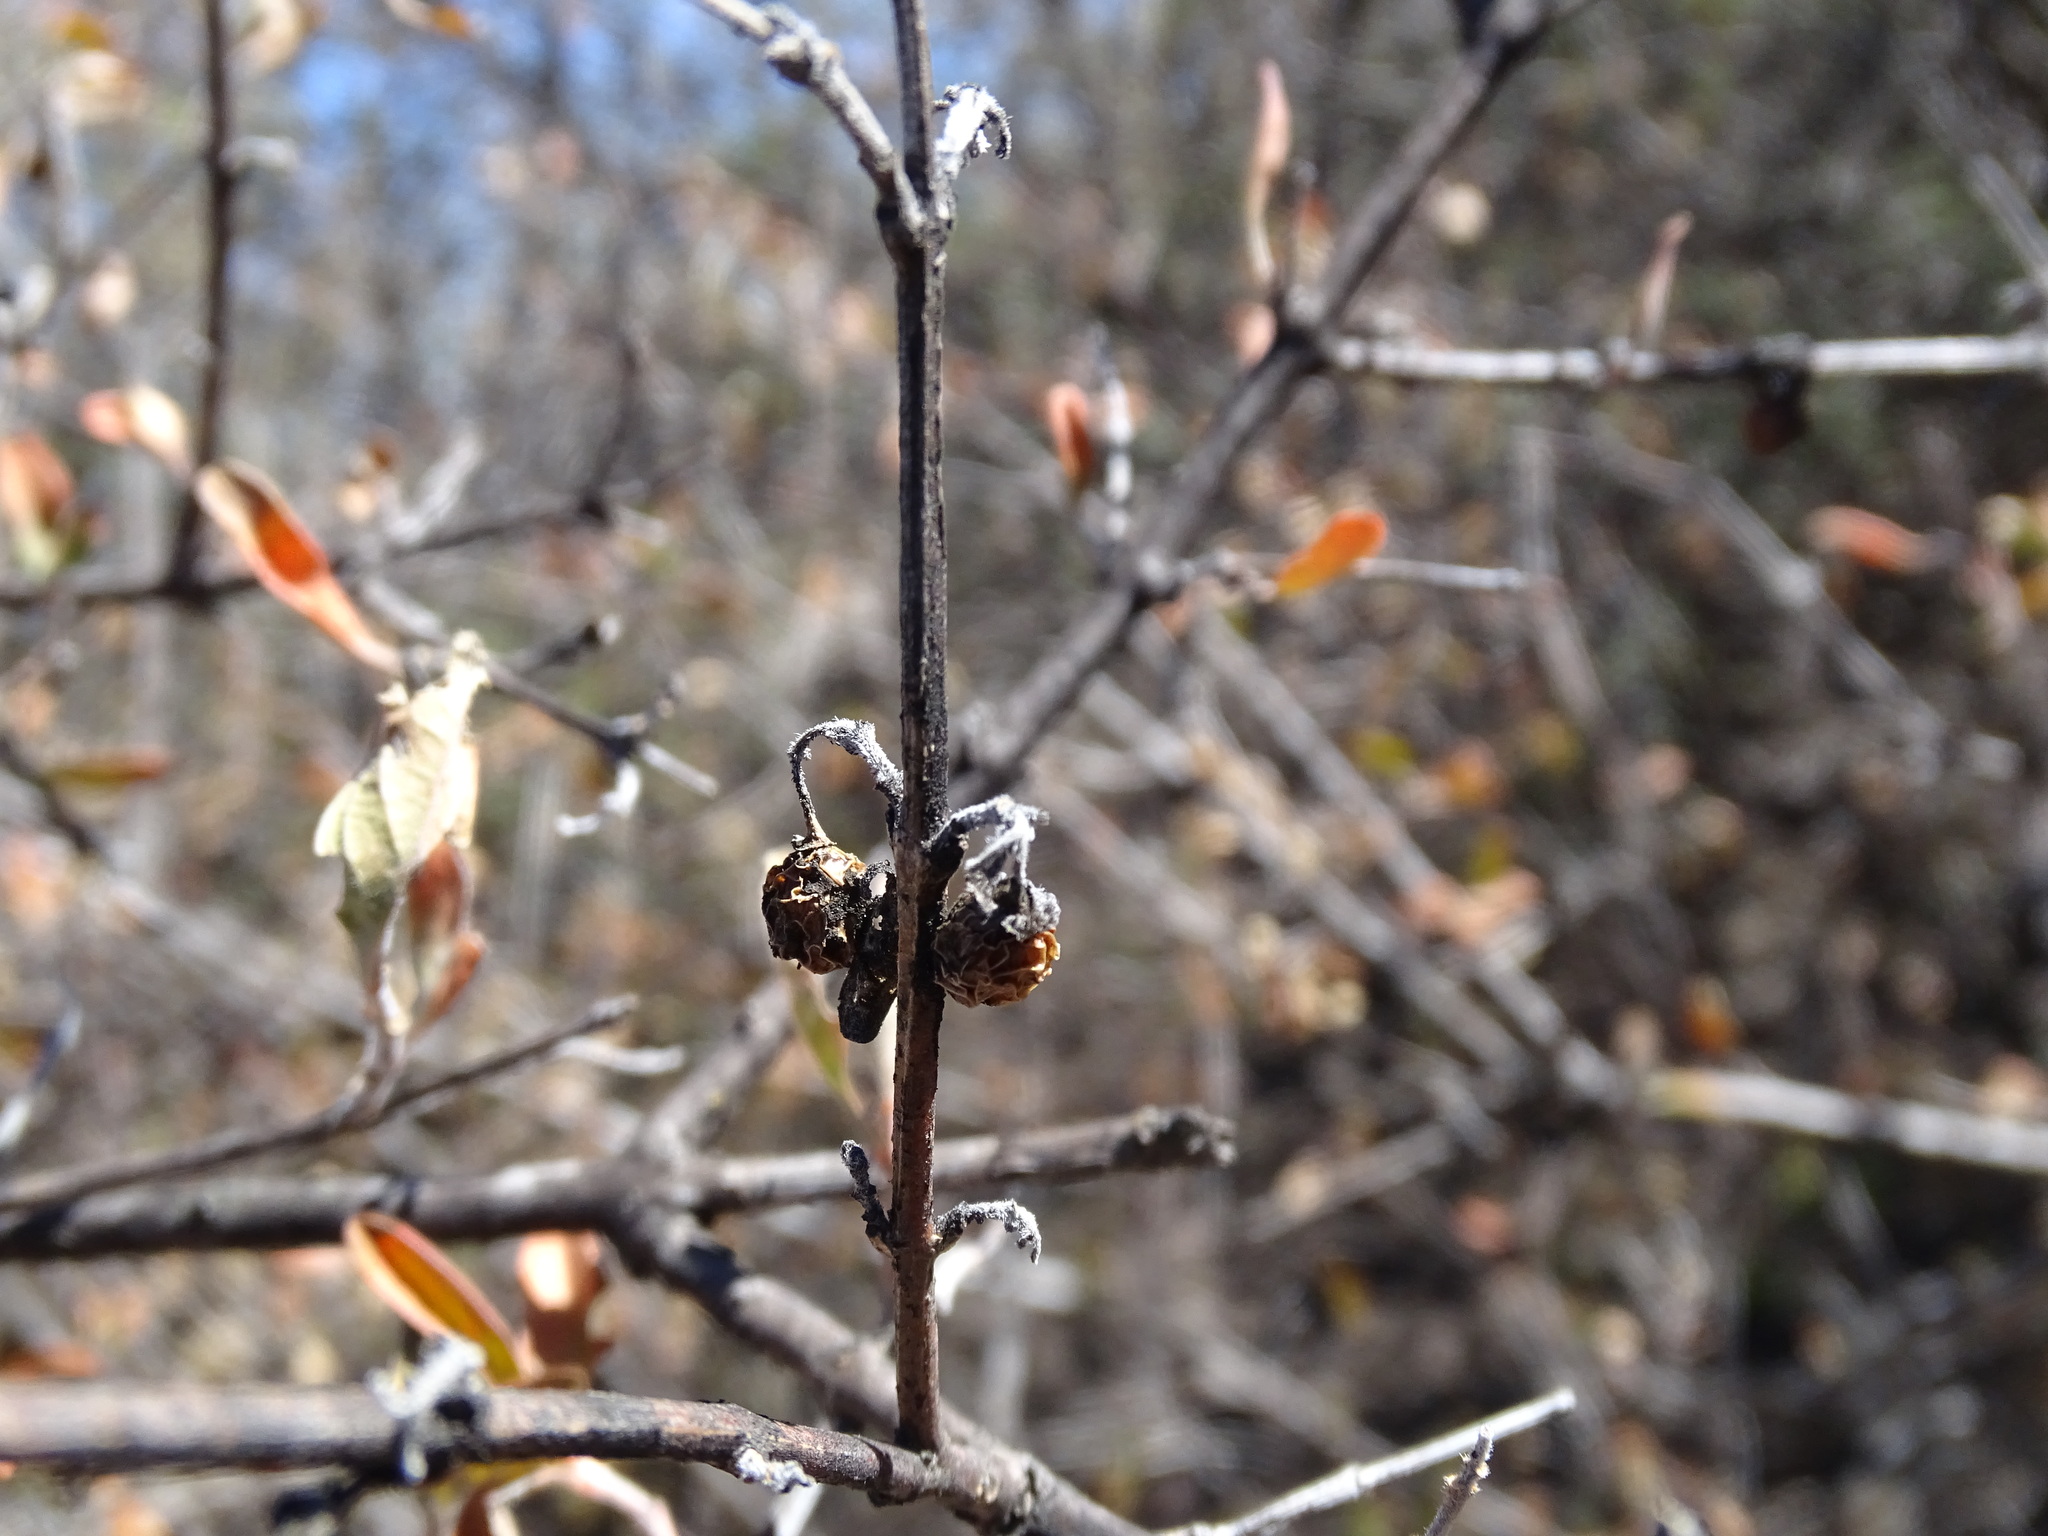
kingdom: Plantae
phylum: Tracheophyta
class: Magnoliopsida
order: Lamiales
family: Verbenaceae
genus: Citharexylum
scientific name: Citharexylum racemosum
